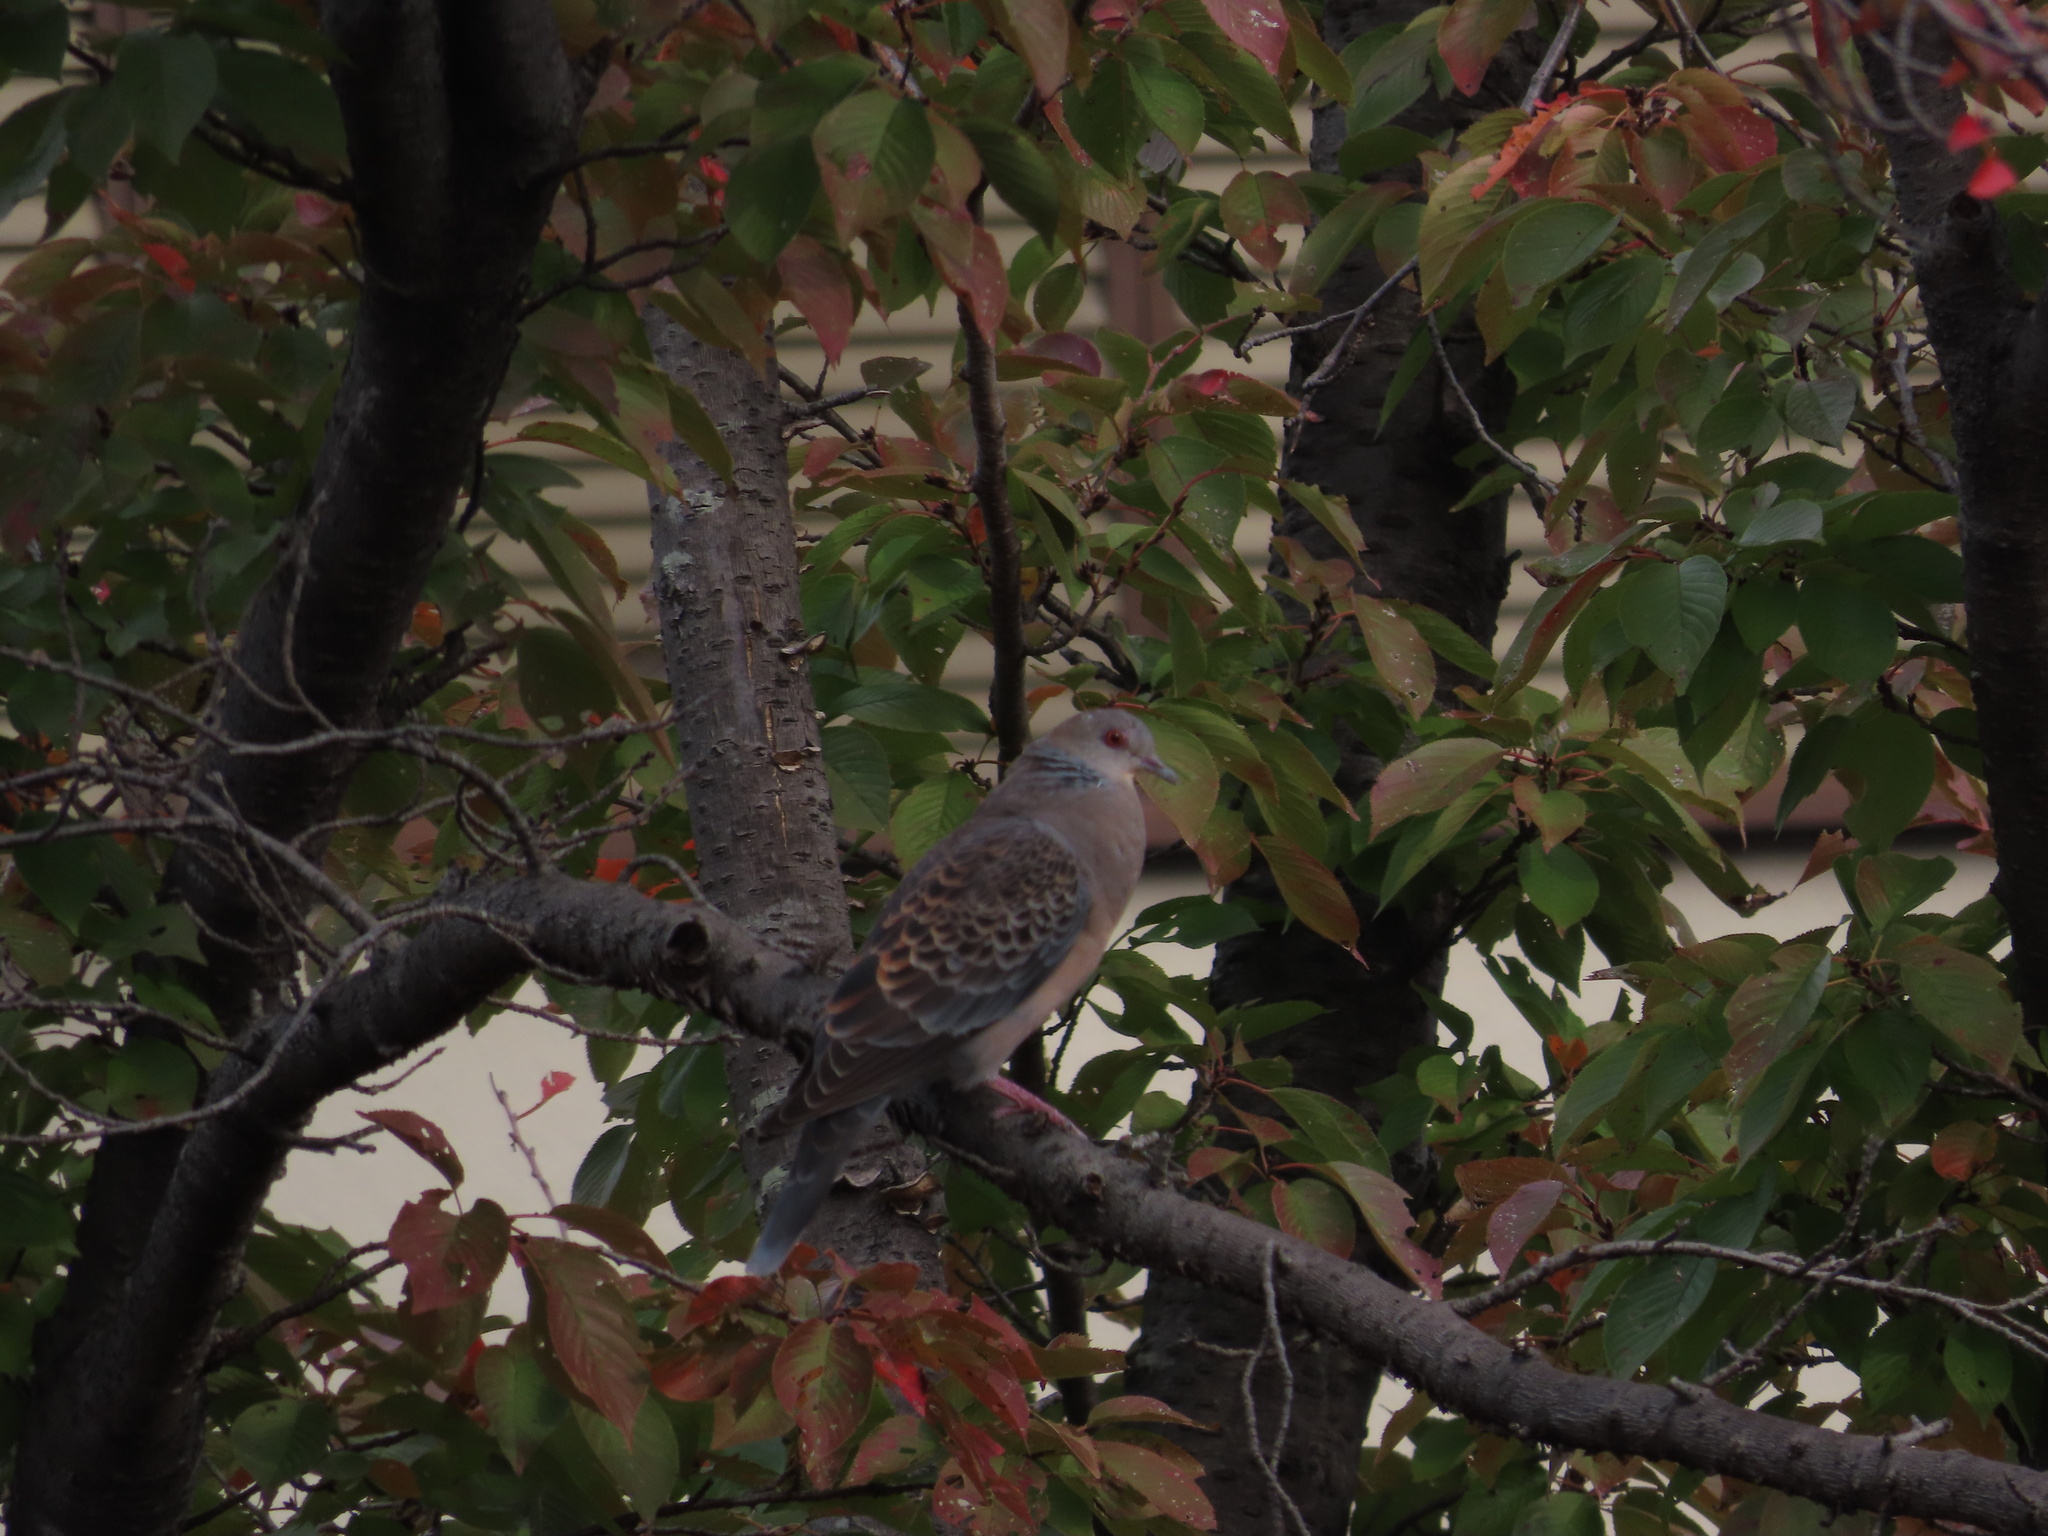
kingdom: Animalia
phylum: Chordata
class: Aves
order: Columbiformes
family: Columbidae
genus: Streptopelia
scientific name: Streptopelia orientalis
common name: Oriental turtle dove
